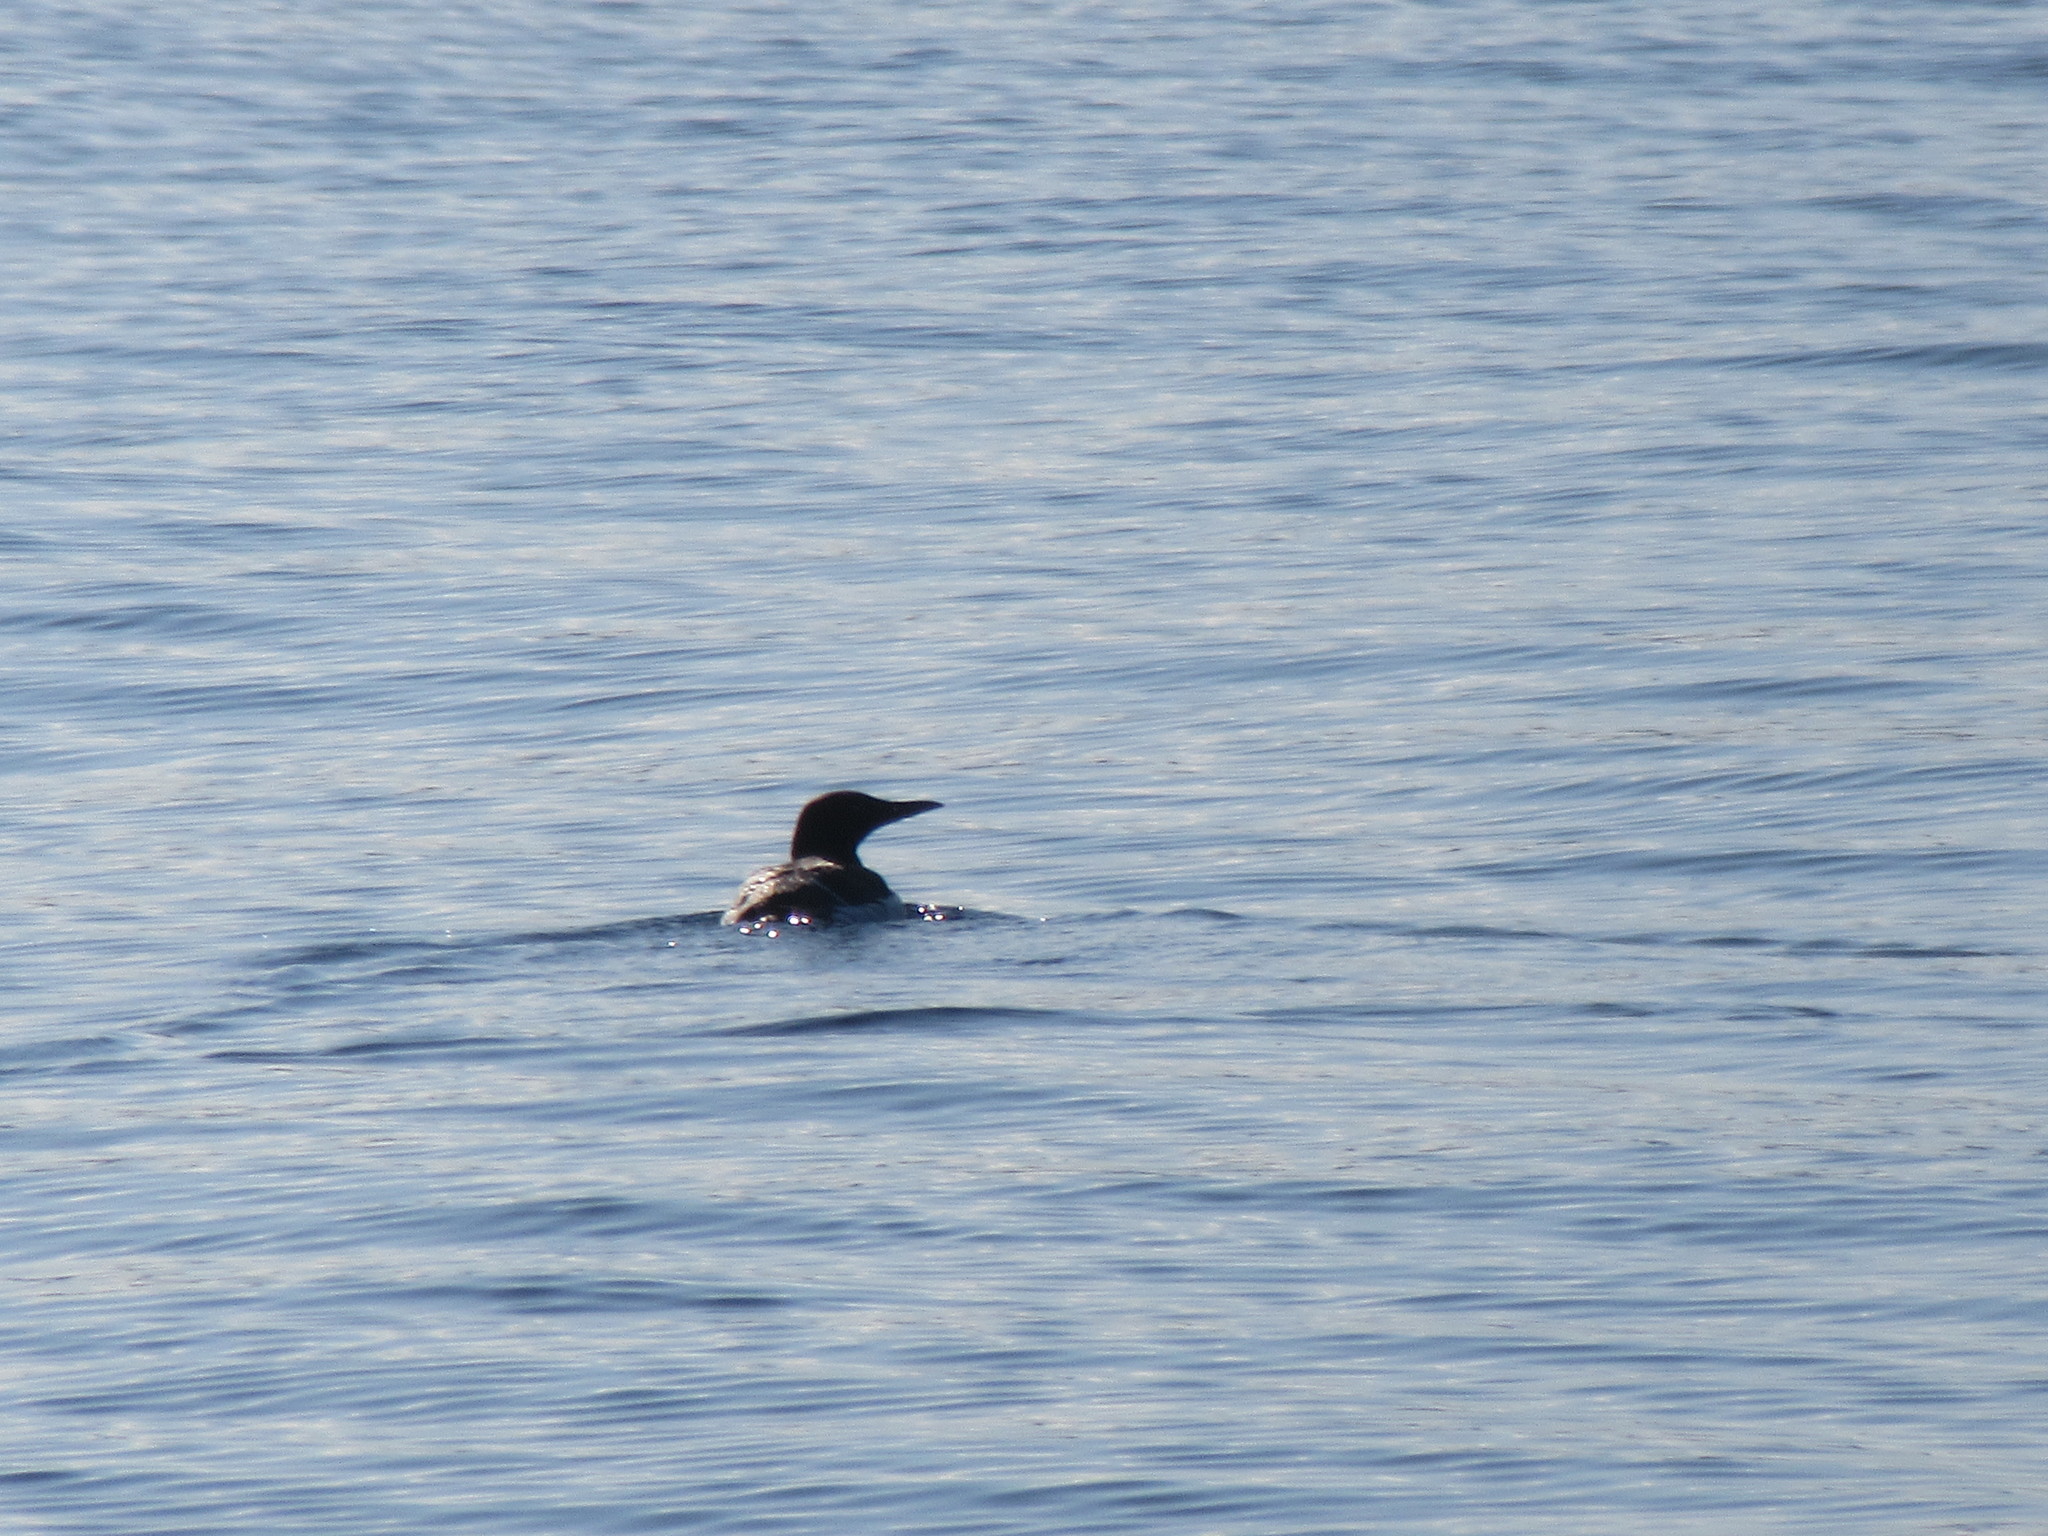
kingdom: Animalia
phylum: Chordata
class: Aves
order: Charadriiformes
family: Alcidae
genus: Uria
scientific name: Uria aalge
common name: Common murre
